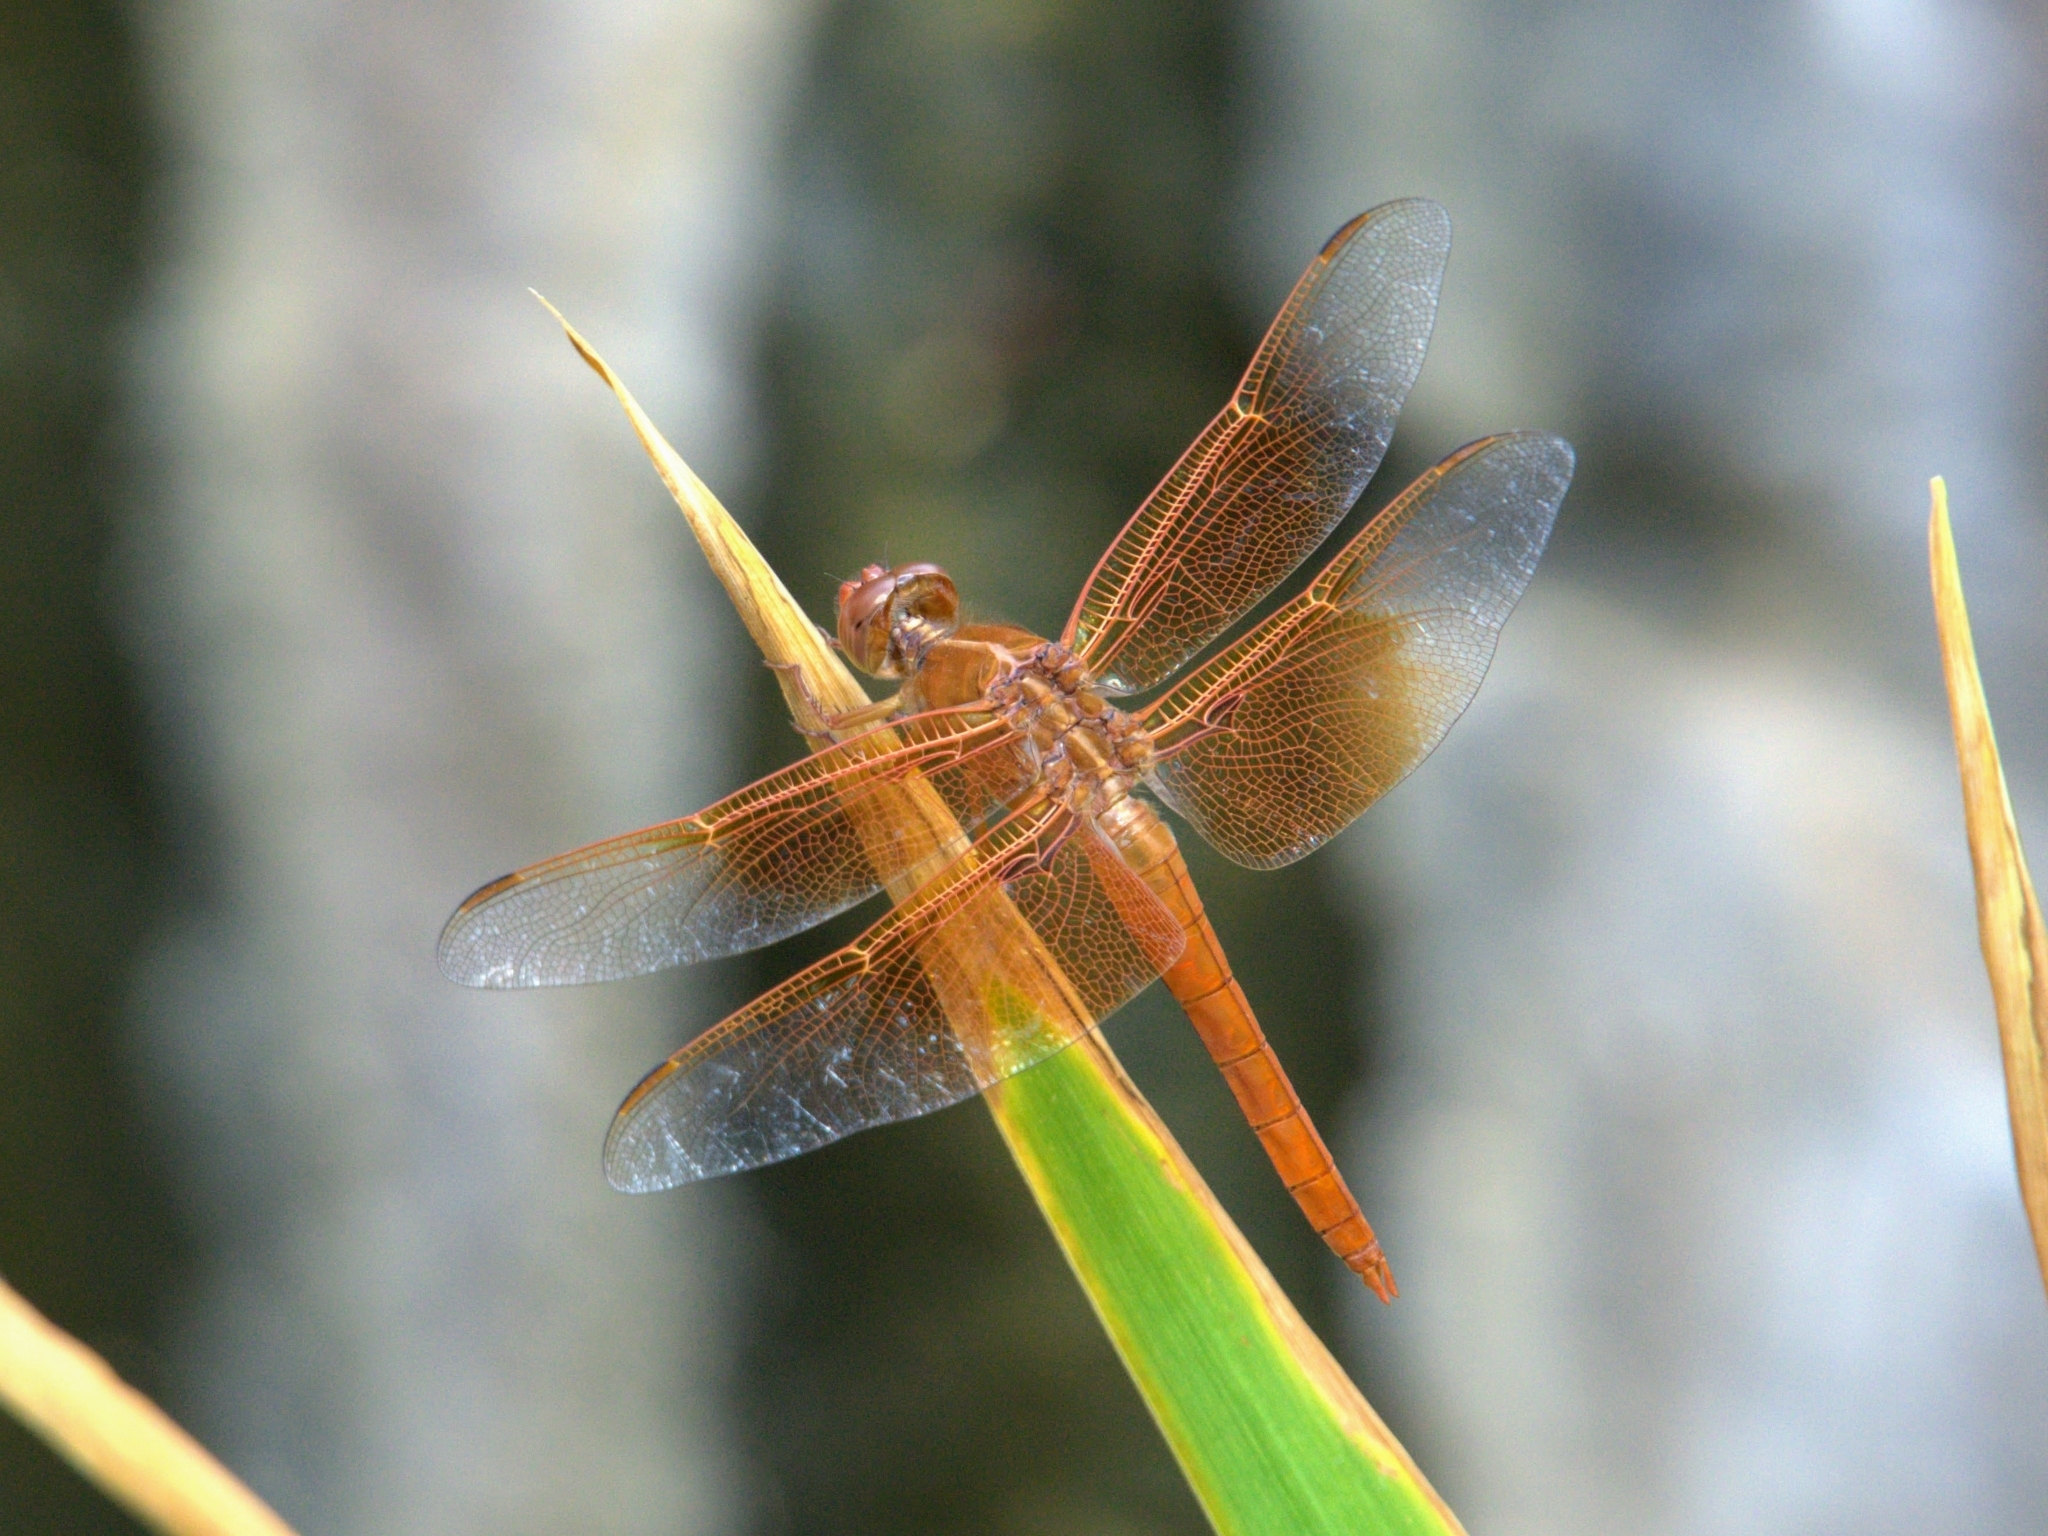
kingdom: Animalia
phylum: Arthropoda
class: Insecta
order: Odonata
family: Libellulidae
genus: Libellula
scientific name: Libellula saturata
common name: Flame skimmer
